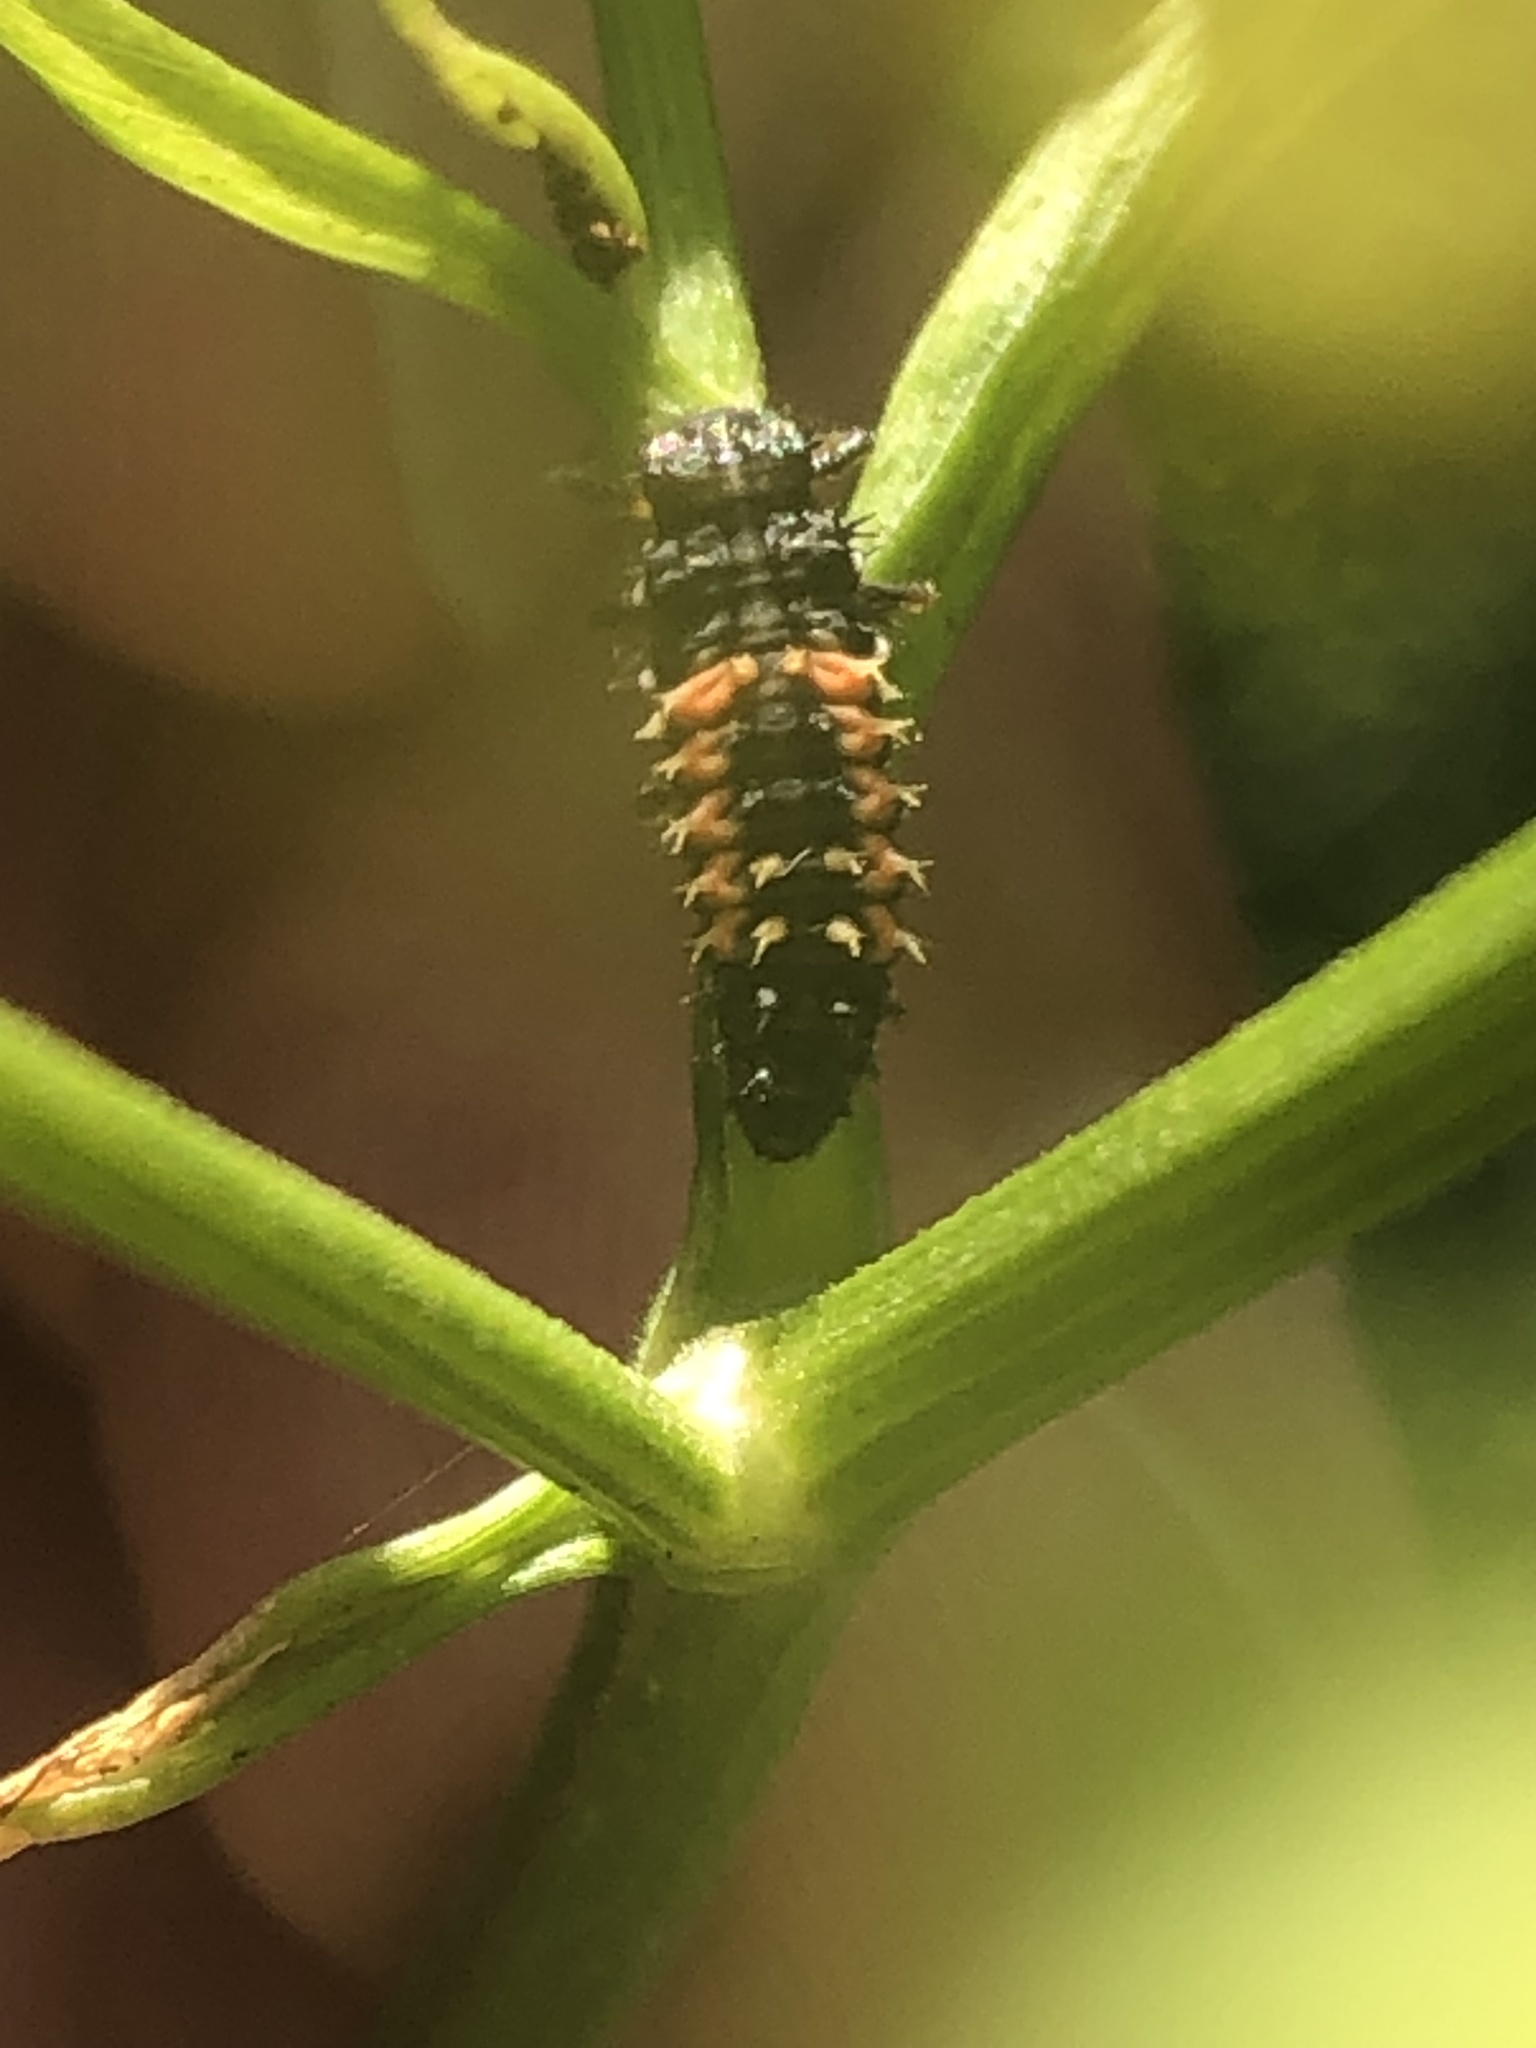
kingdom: Animalia
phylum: Arthropoda
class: Insecta
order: Coleoptera
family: Coccinellidae
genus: Harmonia
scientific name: Harmonia axyridis
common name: Harlequin ladybird
